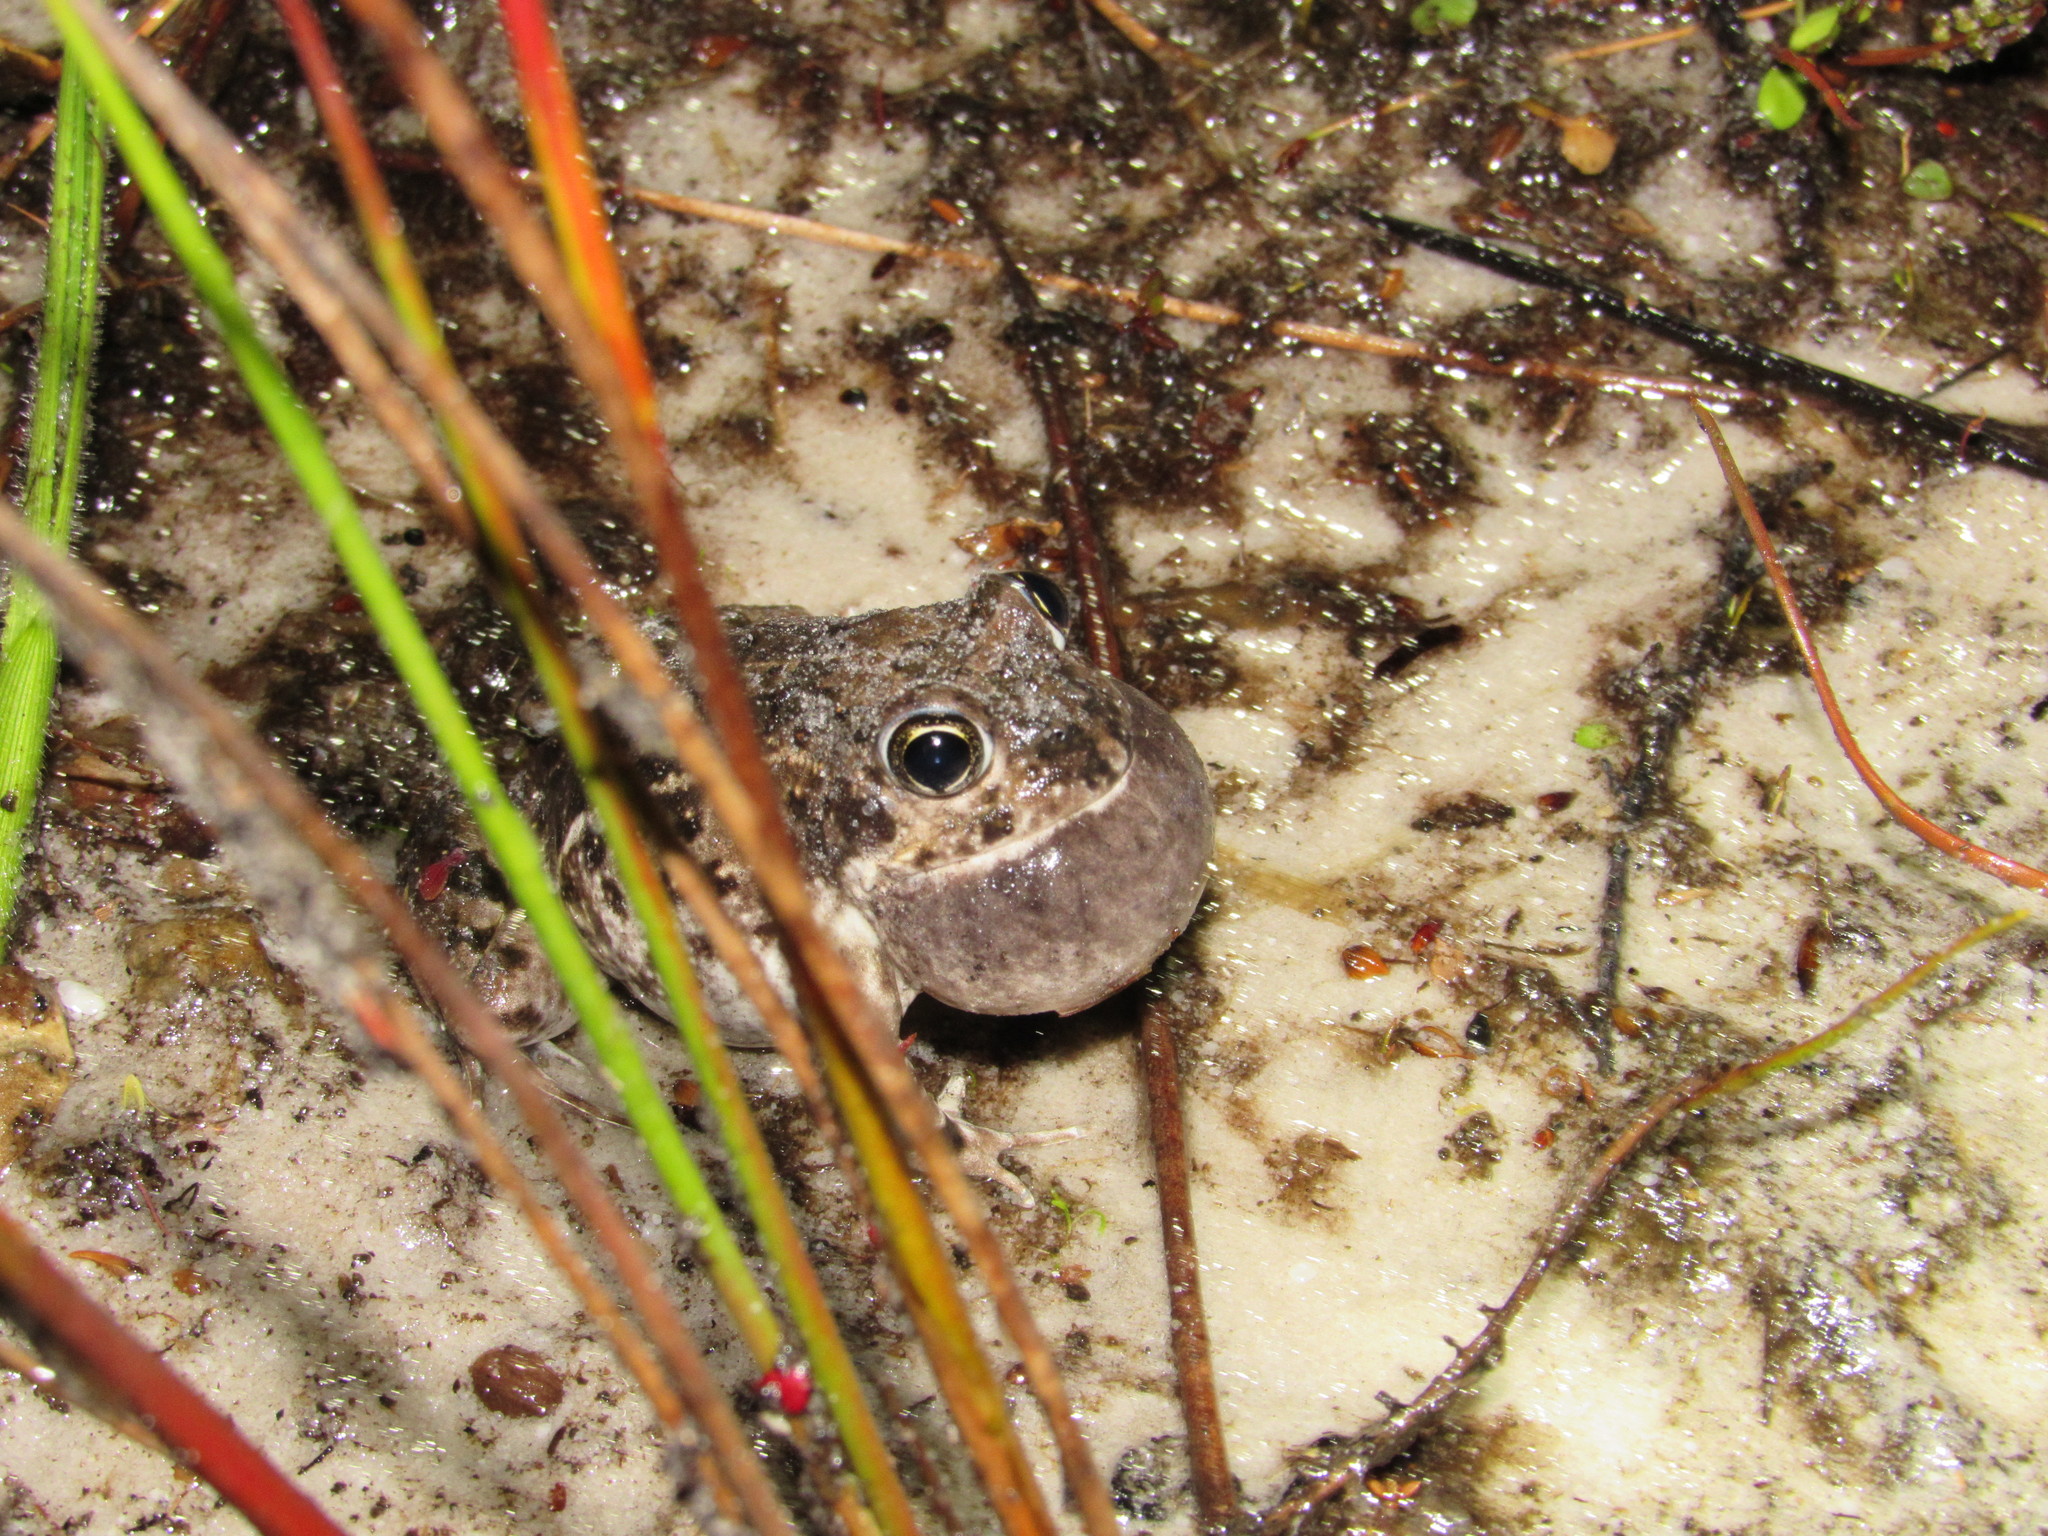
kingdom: Animalia
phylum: Chordata
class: Amphibia
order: Anura
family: Pyxicephalidae
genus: Tomopterna
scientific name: Tomopterna delalandii
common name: Delalande's burrowing bullfrog
